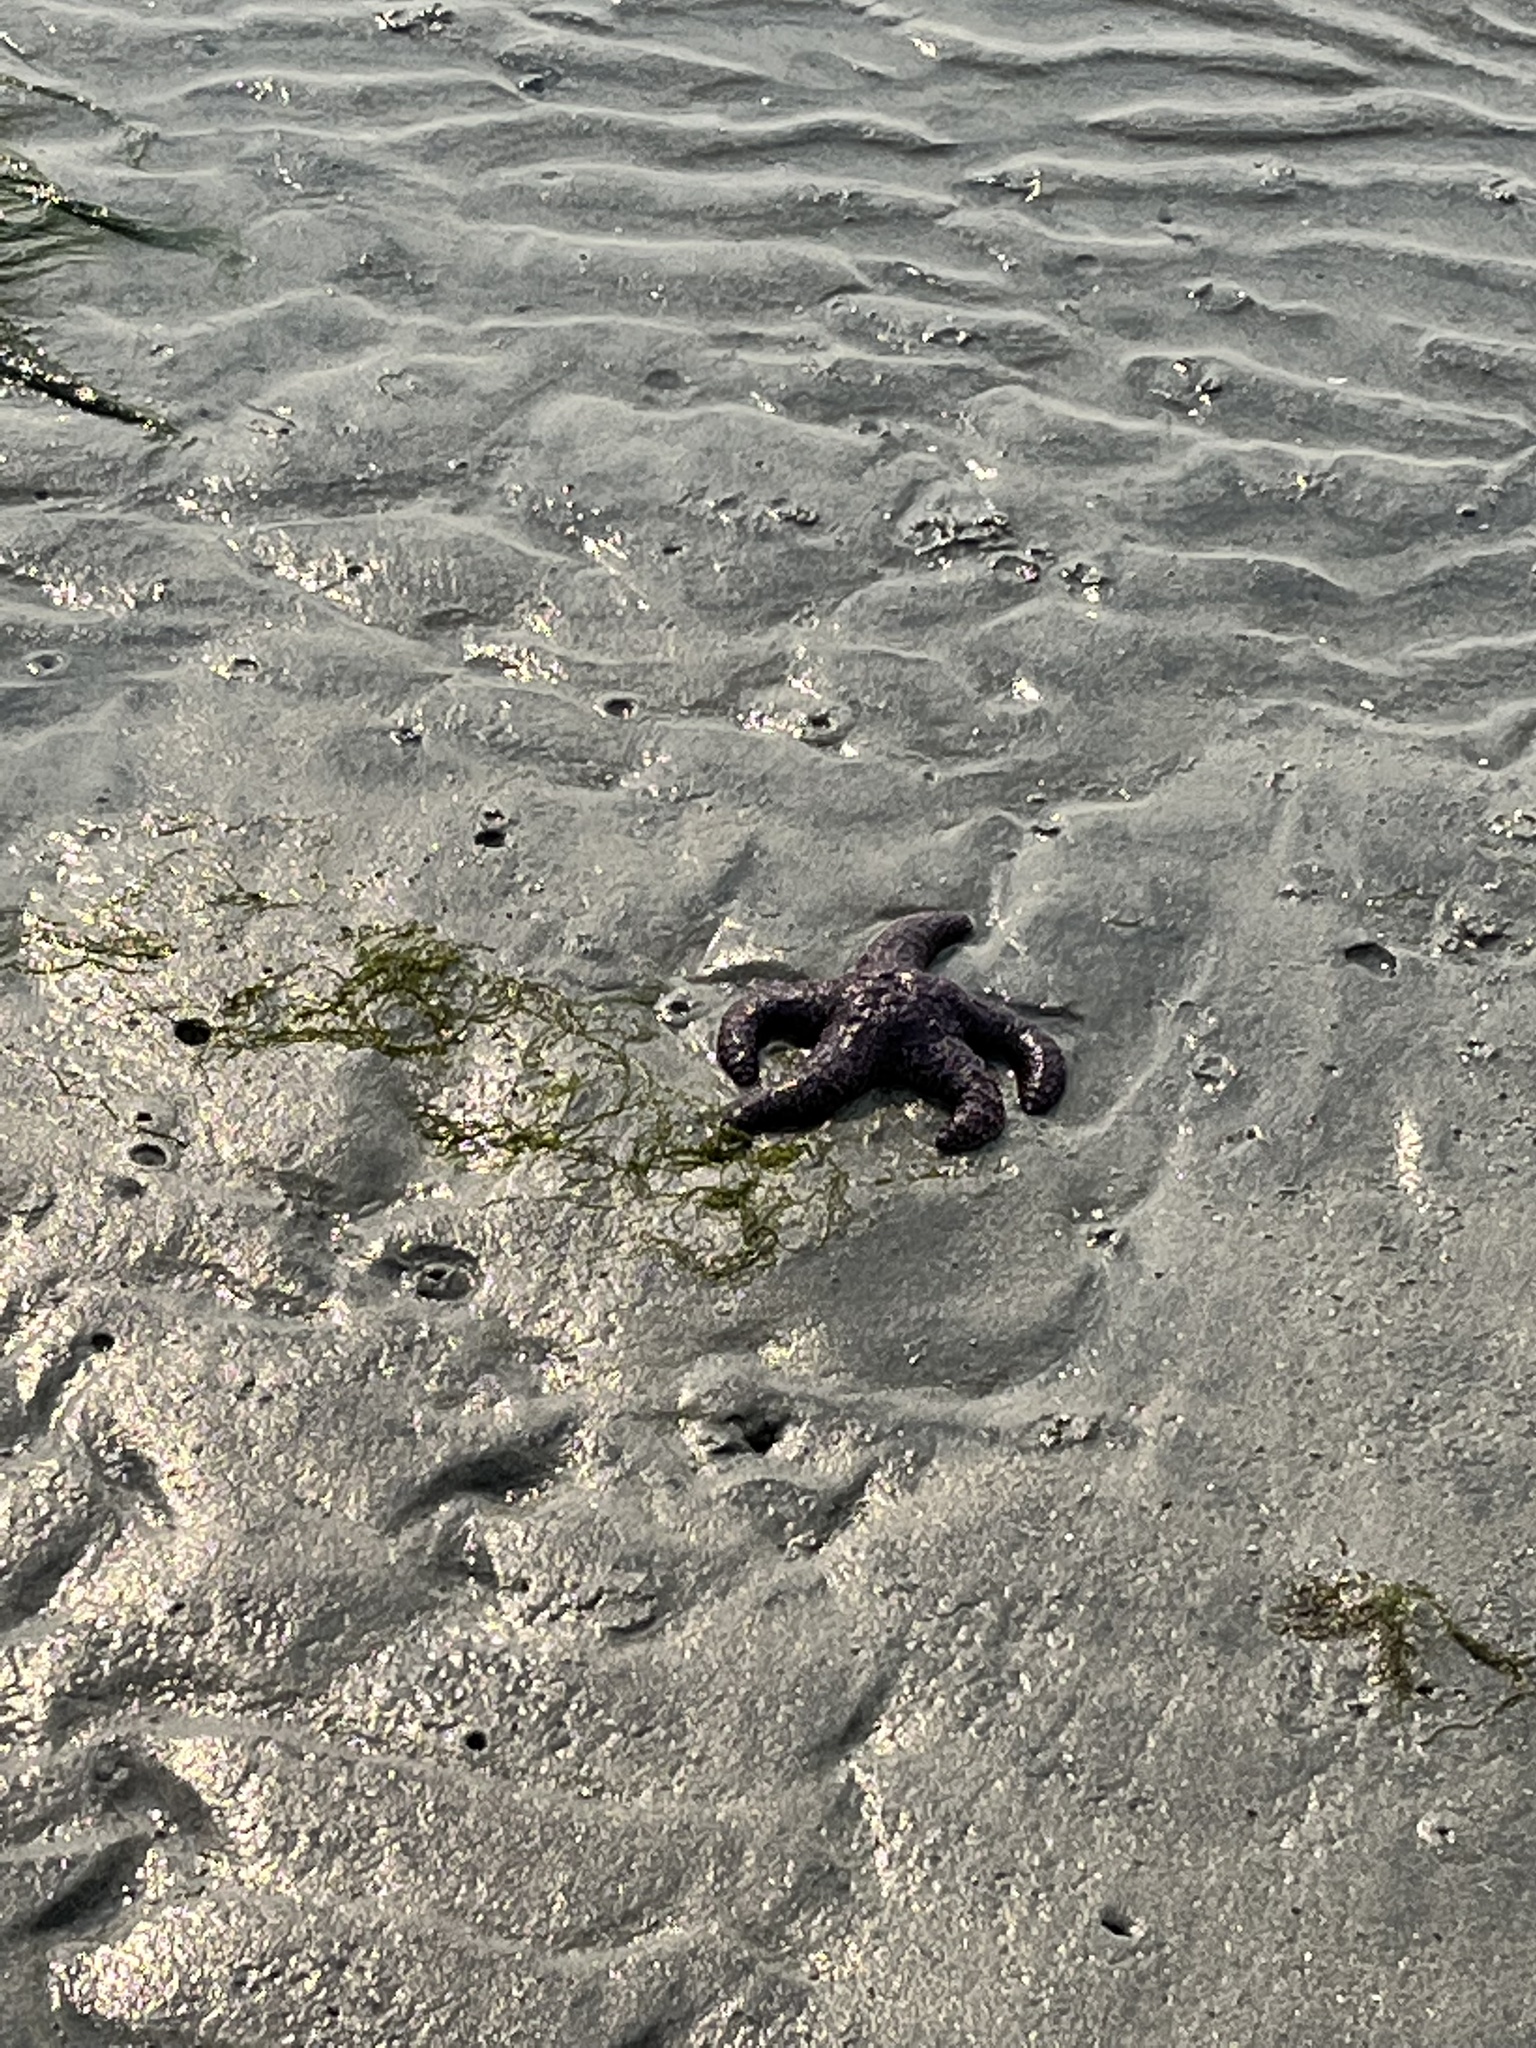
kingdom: Animalia
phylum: Echinodermata
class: Asteroidea
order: Forcipulatida
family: Asteriidae
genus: Pisaster
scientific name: Pisaster ochraceus
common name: Ochre stars
